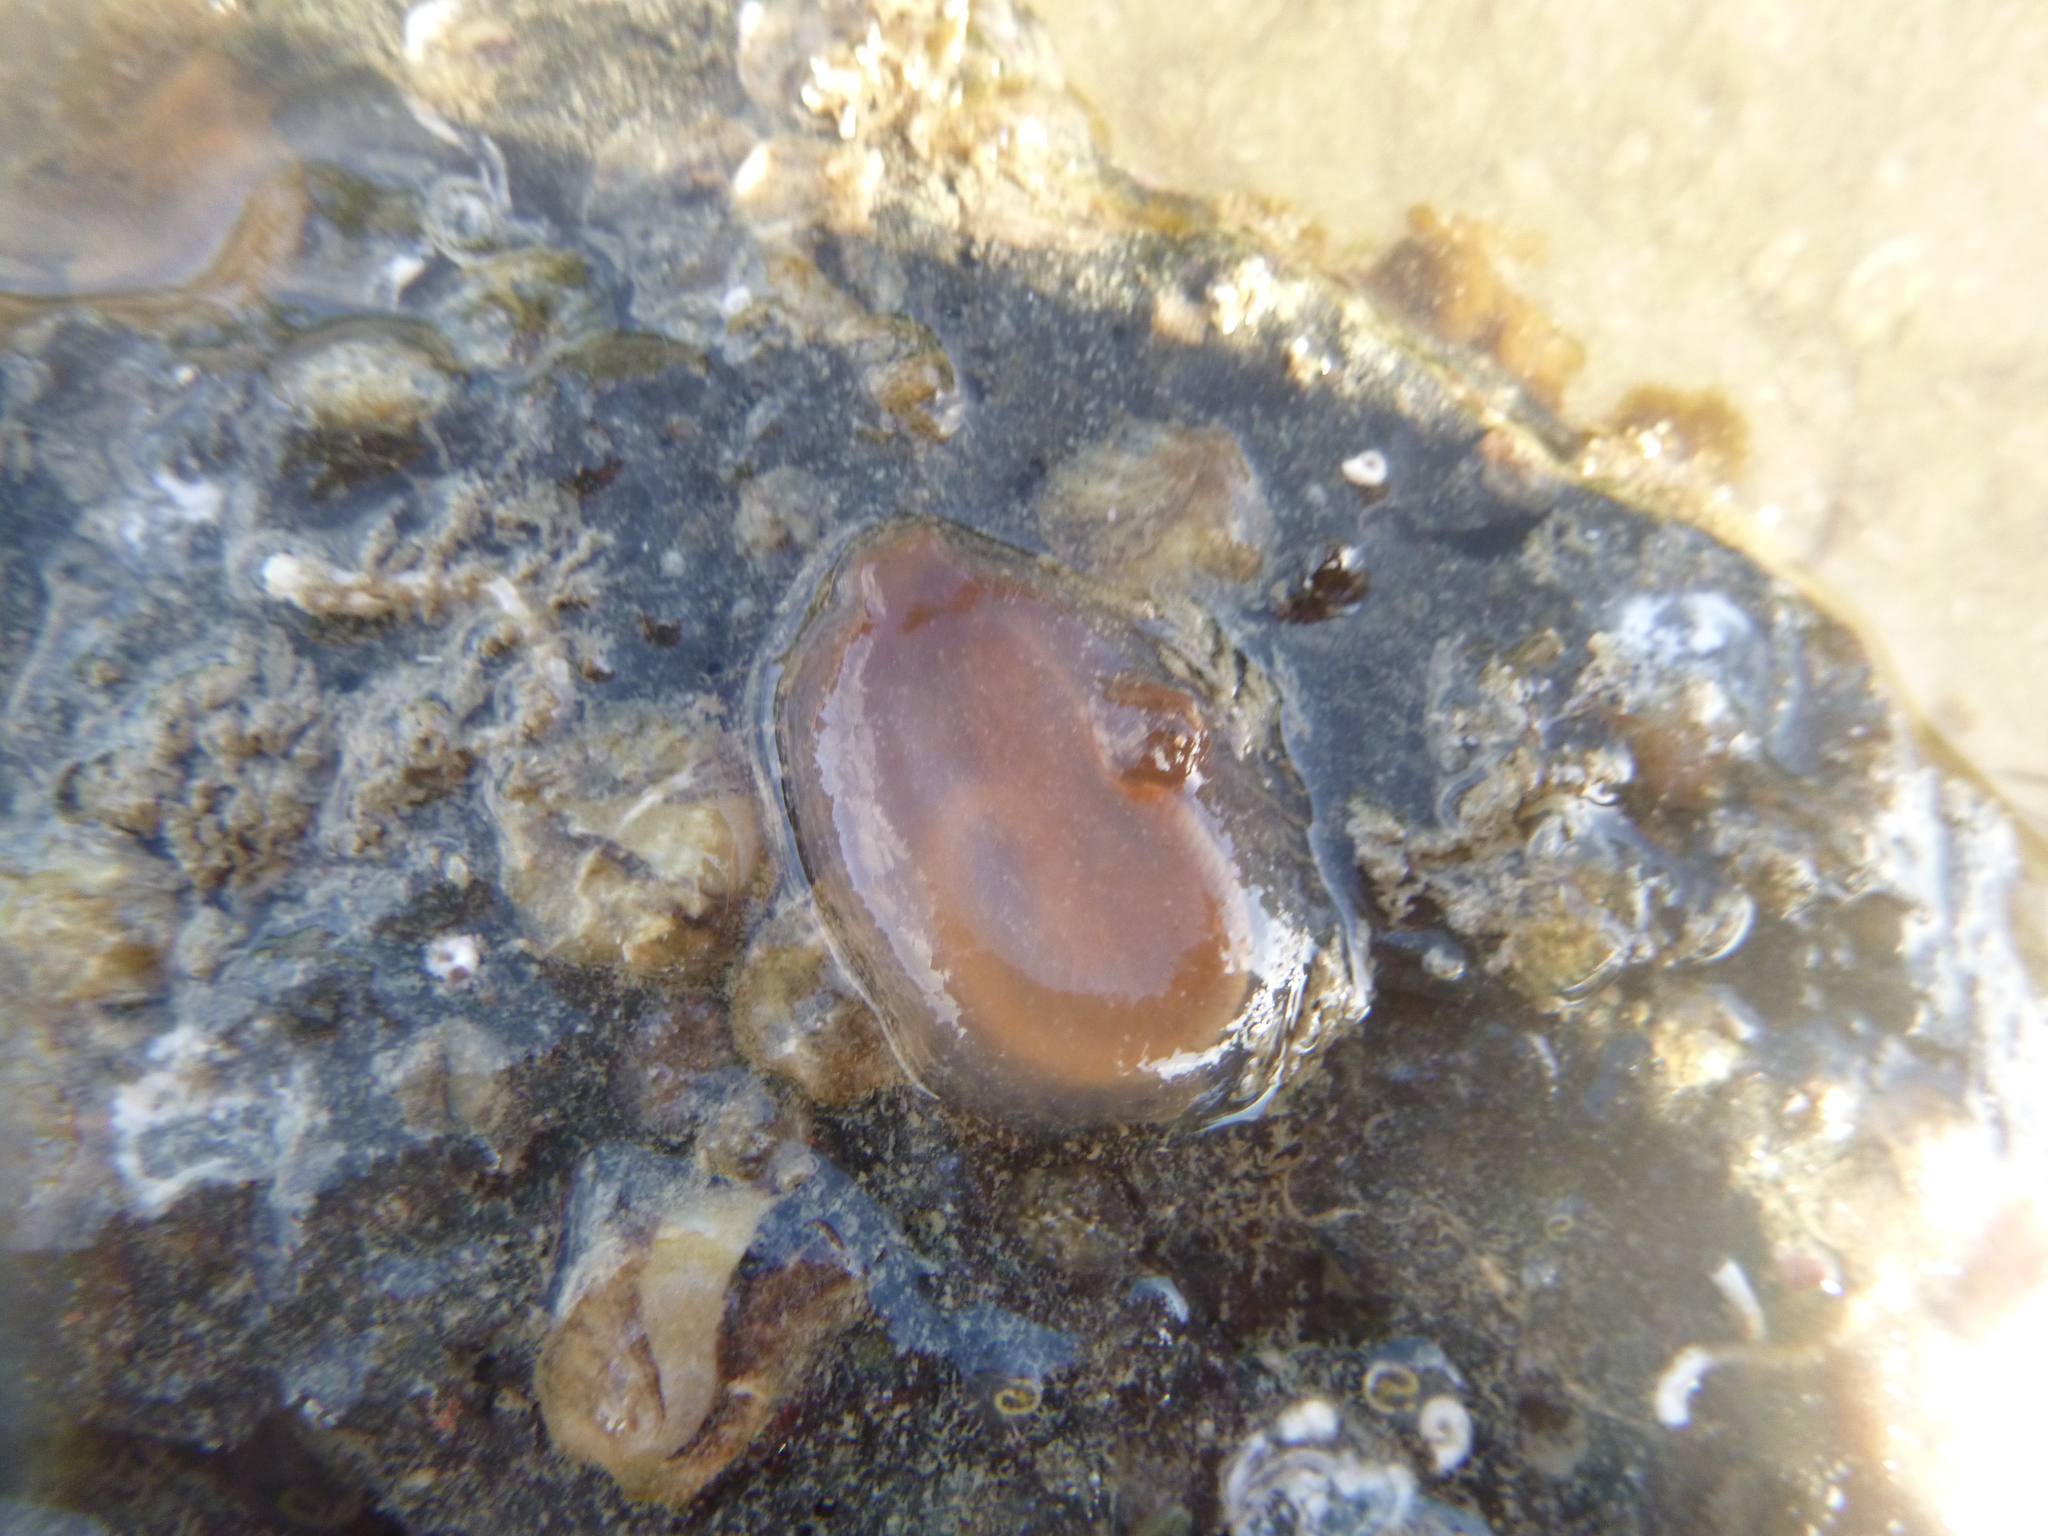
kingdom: Animalia
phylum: Chordata
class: Ascidiacea
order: Phlebobranchia
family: Corellidae
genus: Corella
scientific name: Corella eumyota
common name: Orange-tipped sea squirt
